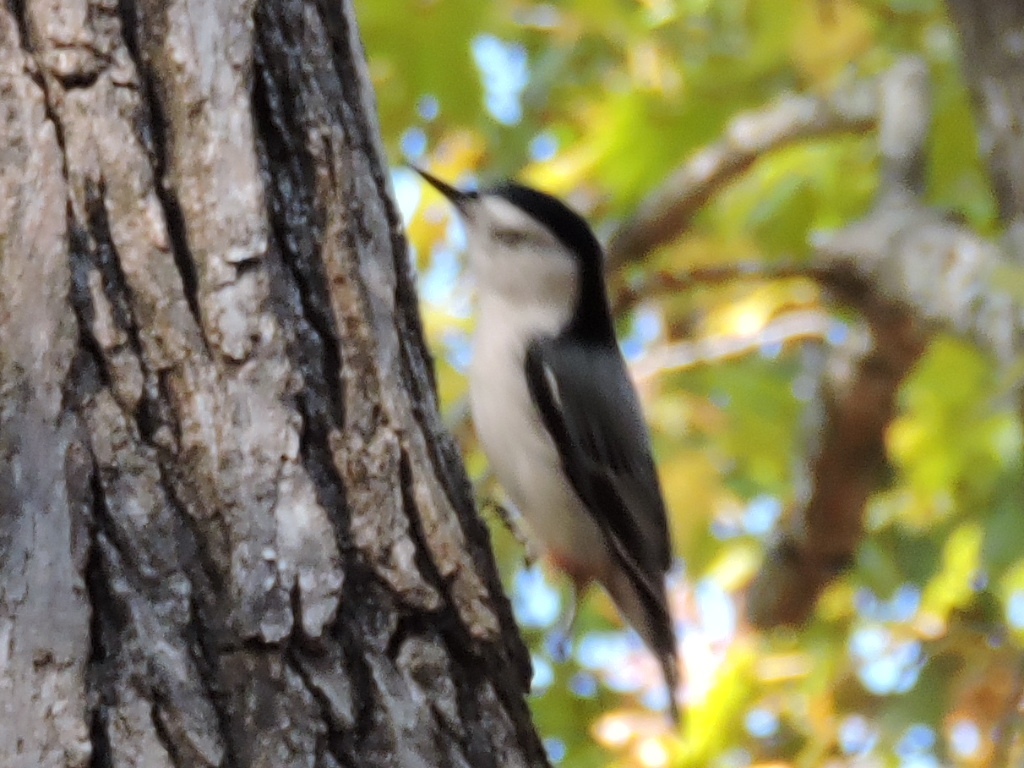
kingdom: Animalia
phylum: Chordata
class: Aves
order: Passeriformes
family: Sittidae
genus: Sitta
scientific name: Sitta carolinensis
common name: White-breasted nuthatch
